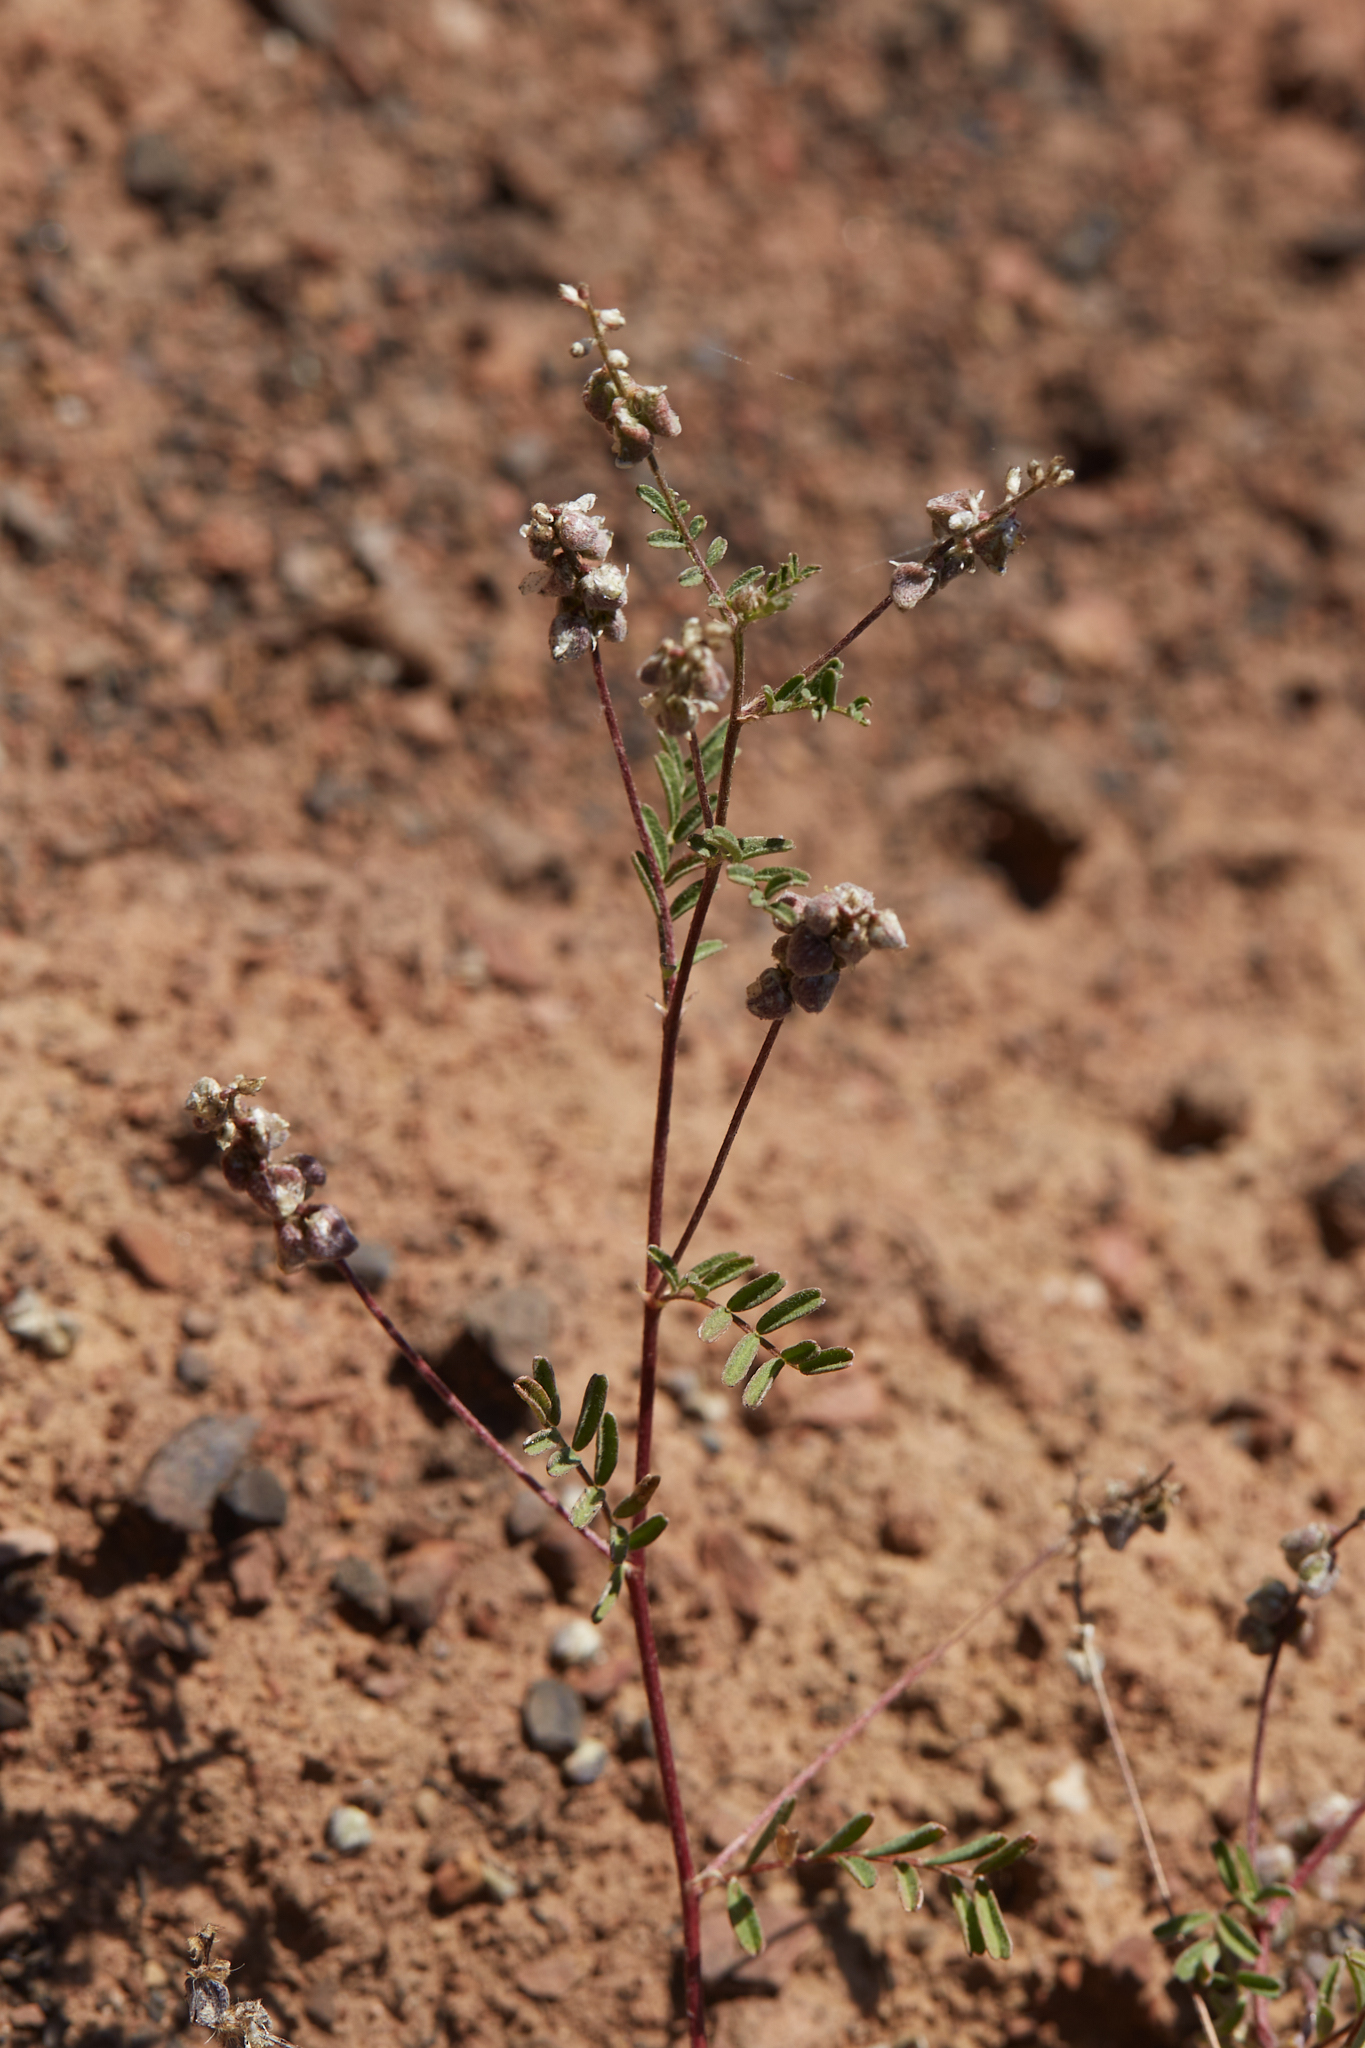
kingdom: Plantae
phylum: Tracheophyta
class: Magnoliopsida
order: Fabales
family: Fabaceae
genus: Astragalus
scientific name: Astragalus gambelianus
